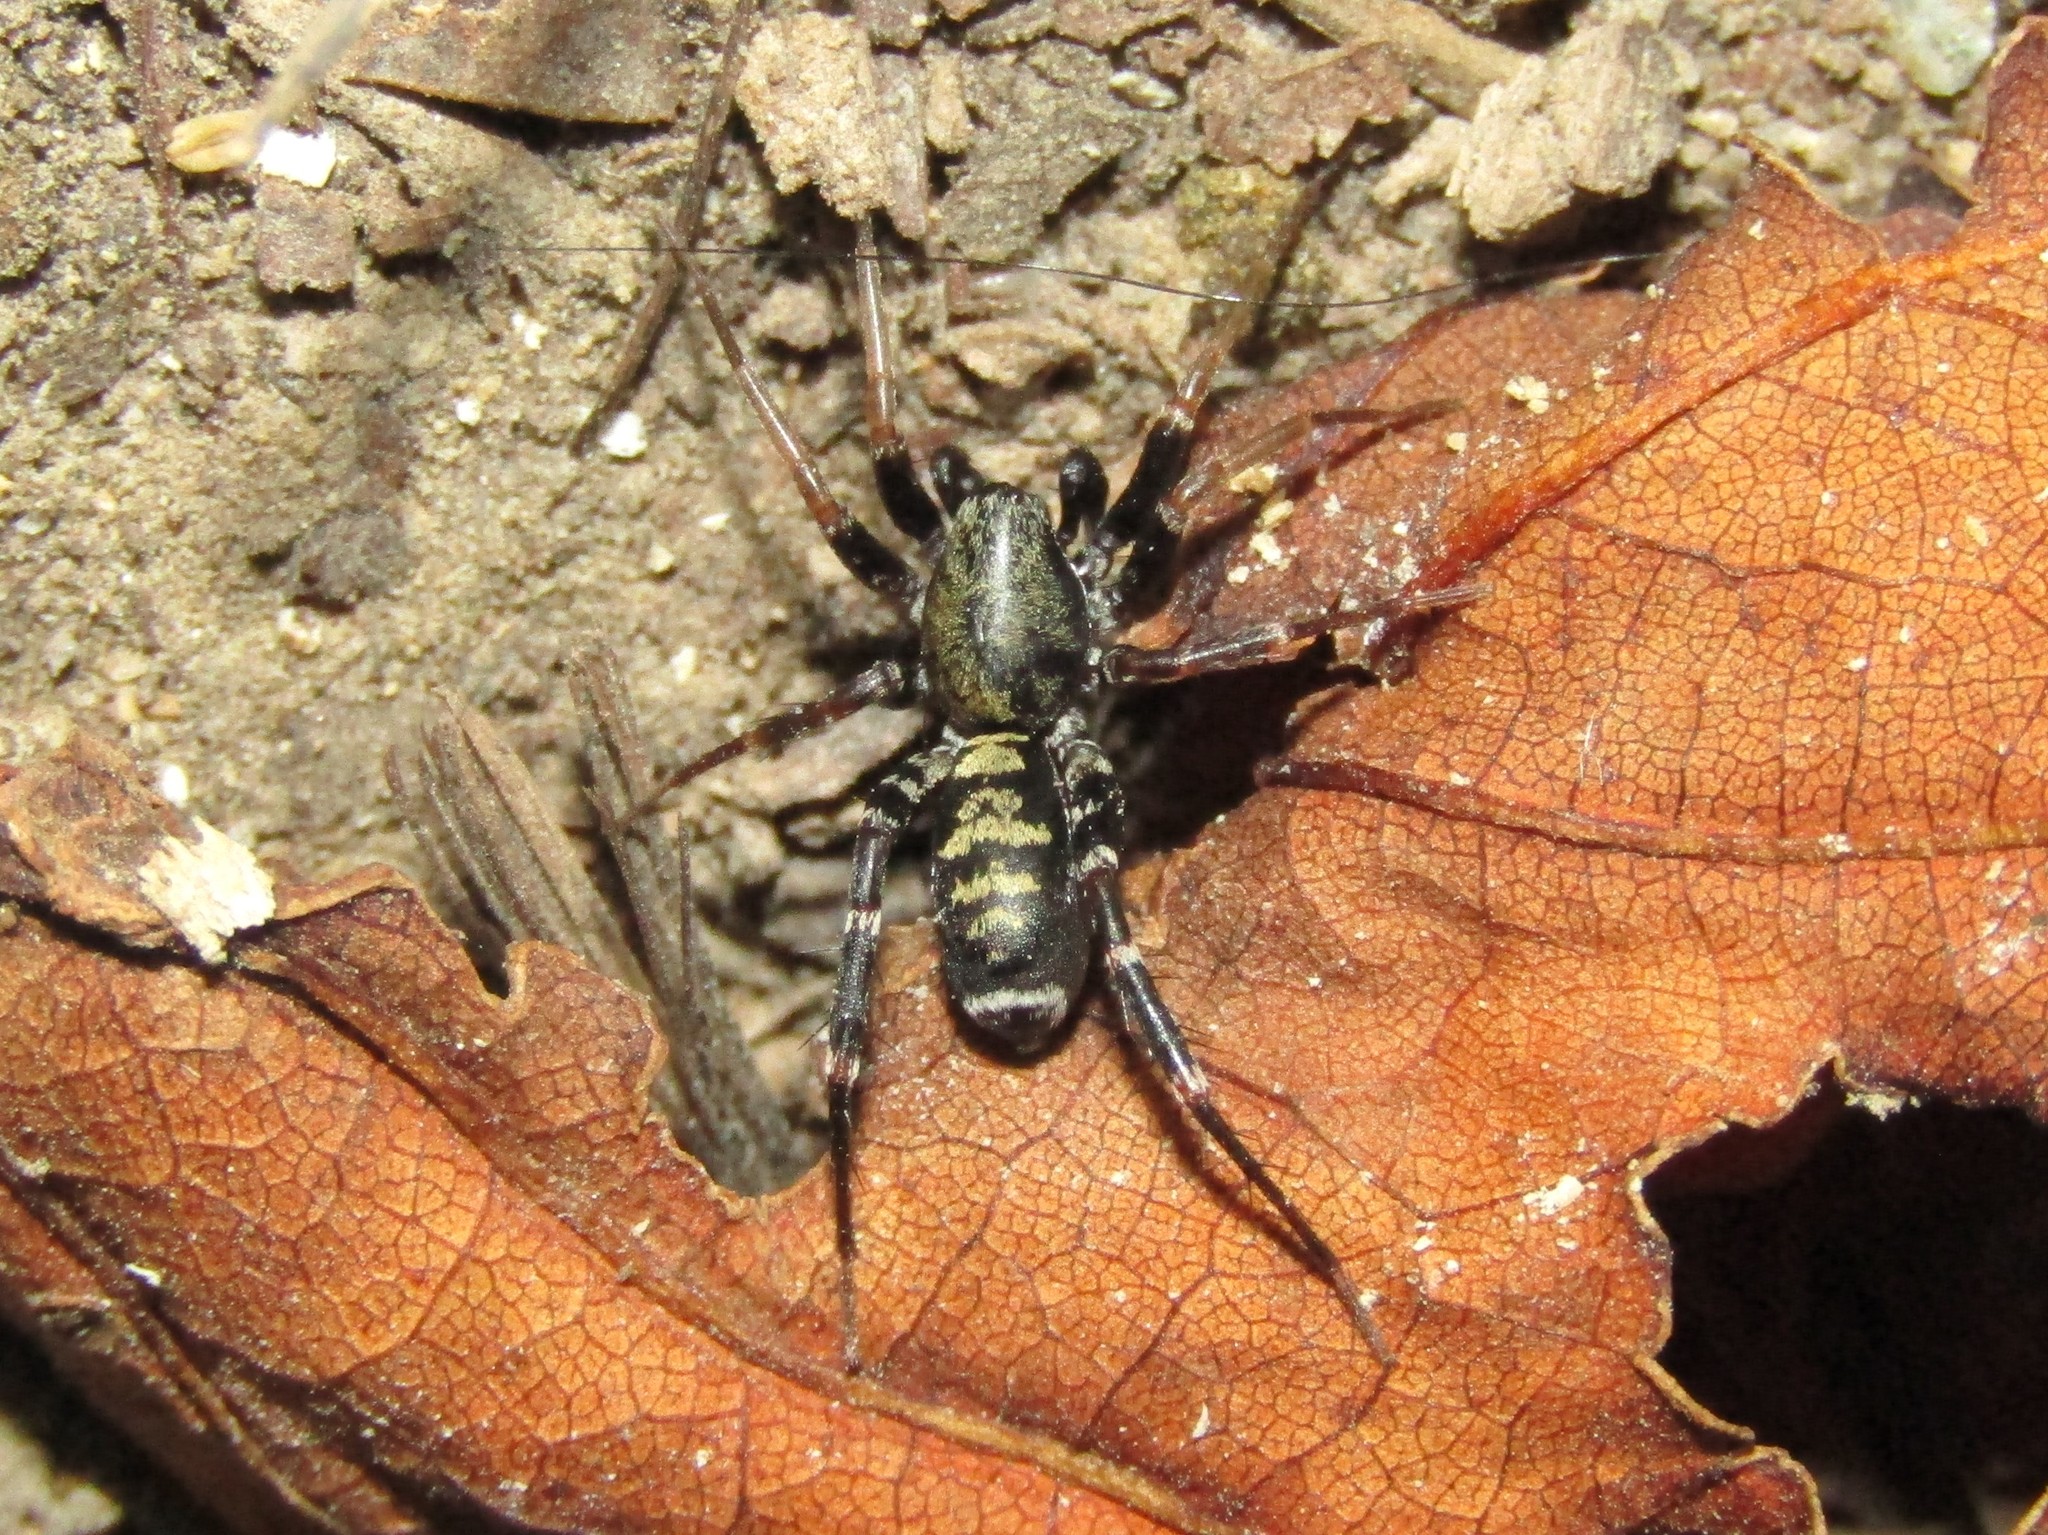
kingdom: Animalia
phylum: Arthropoda
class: Arachnida
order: Araneae
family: Corinnidae
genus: Castianeira
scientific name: Castianeira longipalpa
